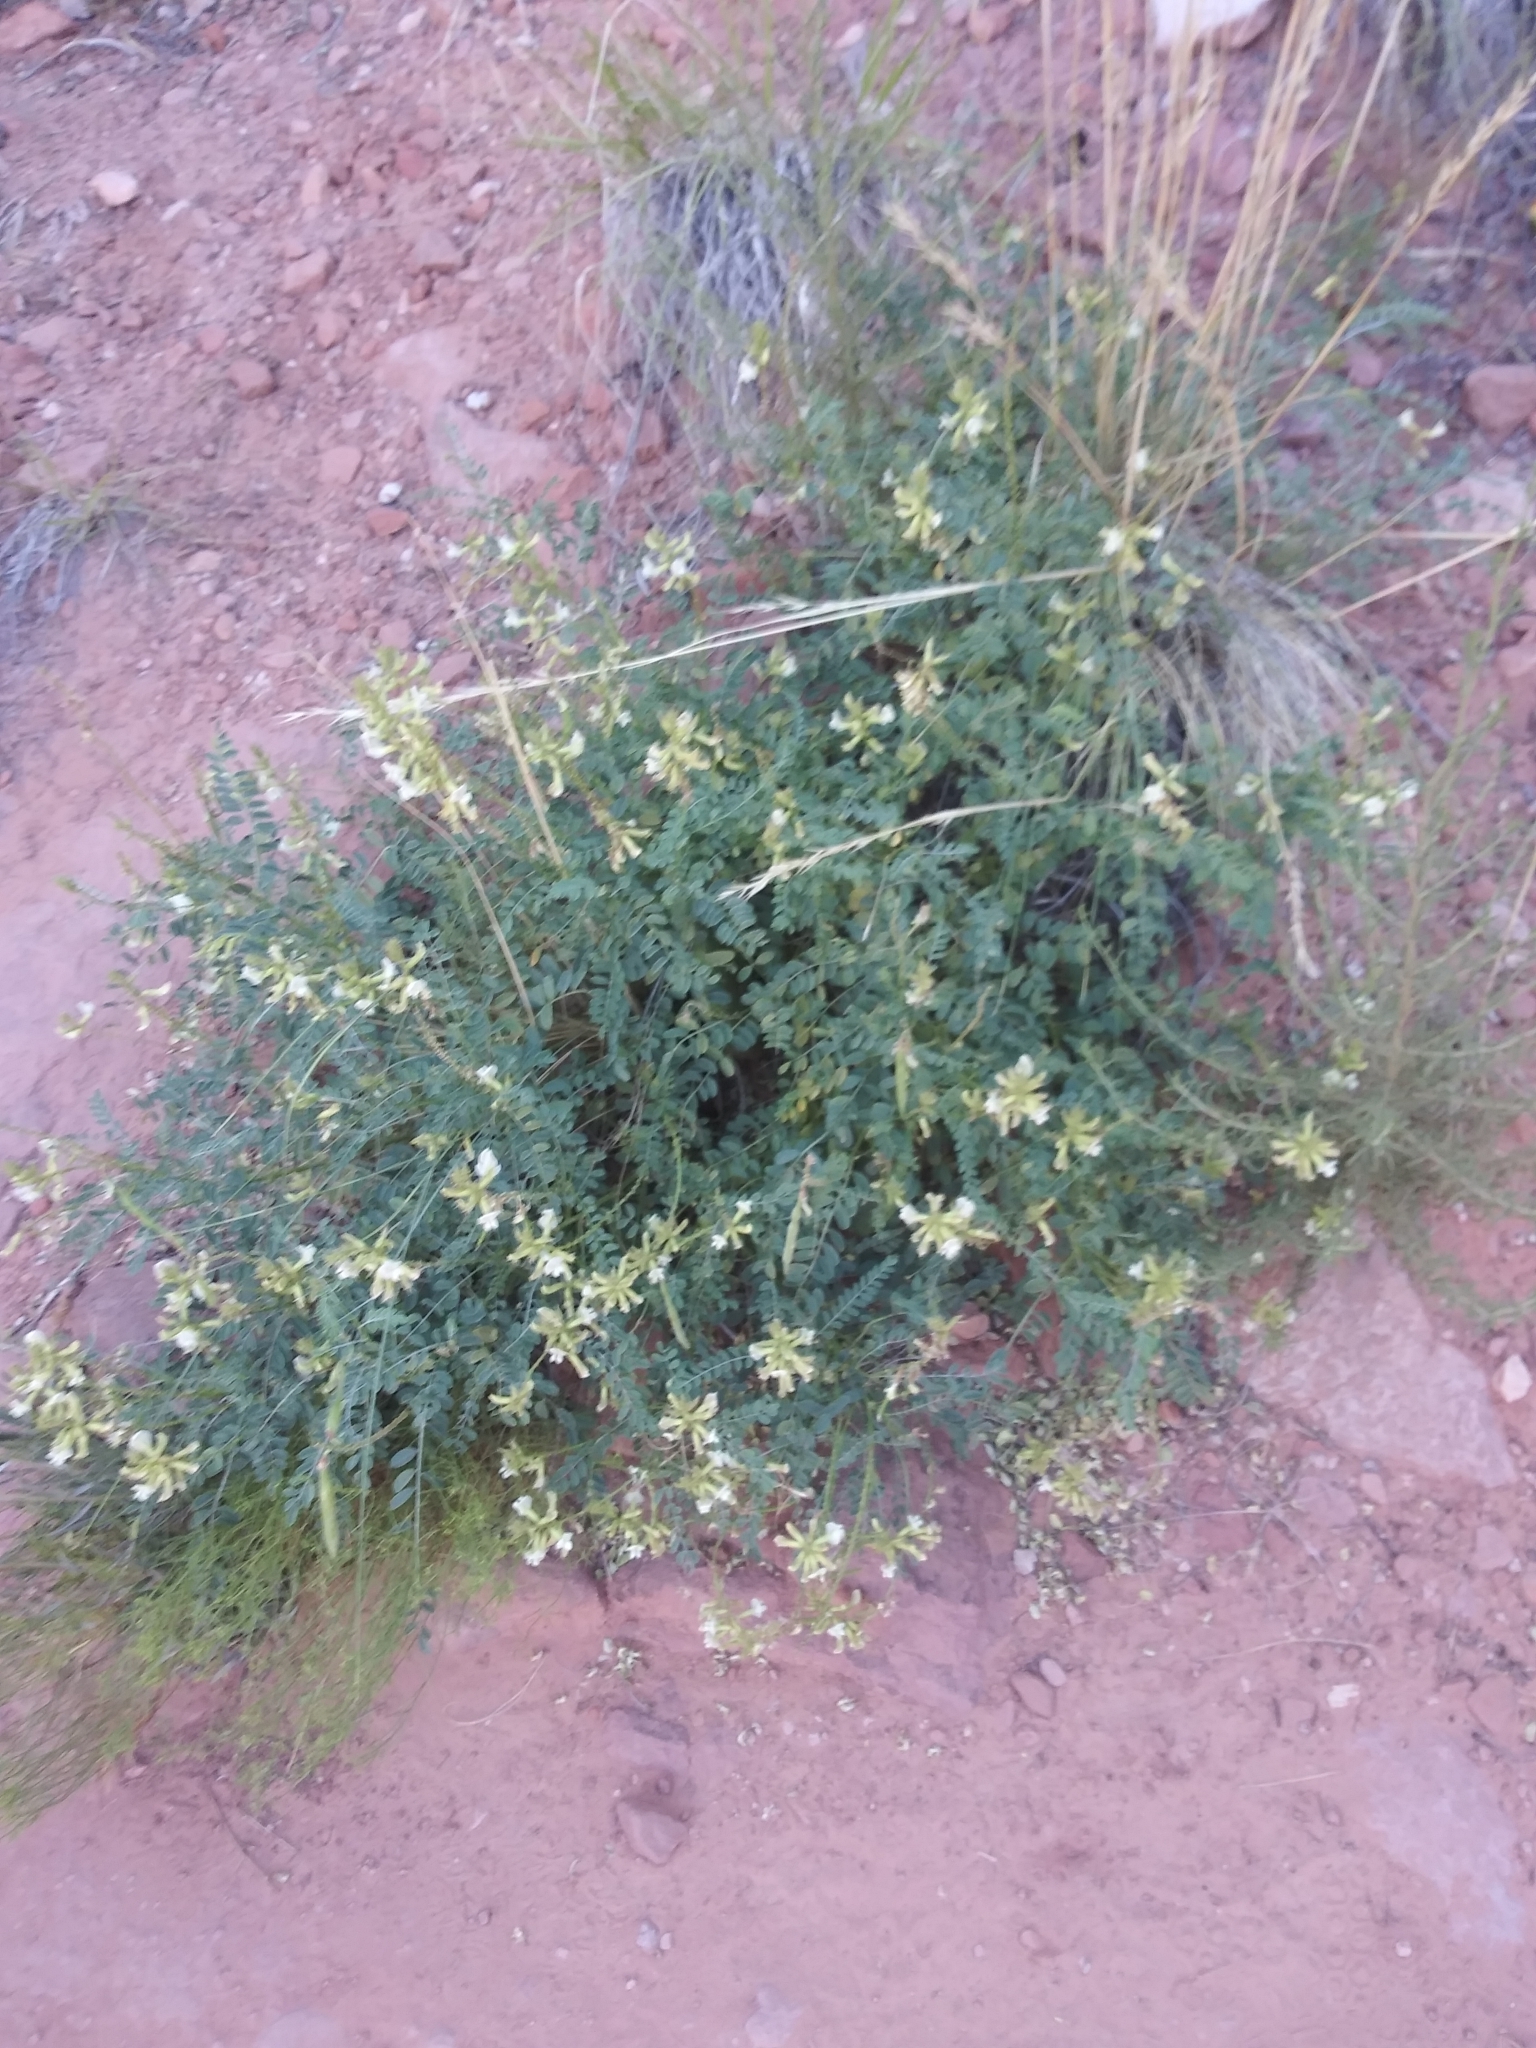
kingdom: Plantae
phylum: Tracheophyta
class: Magnoliopsida
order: Fabales
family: Fabaceae
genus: Peteria
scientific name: Peteria thompsoniae
